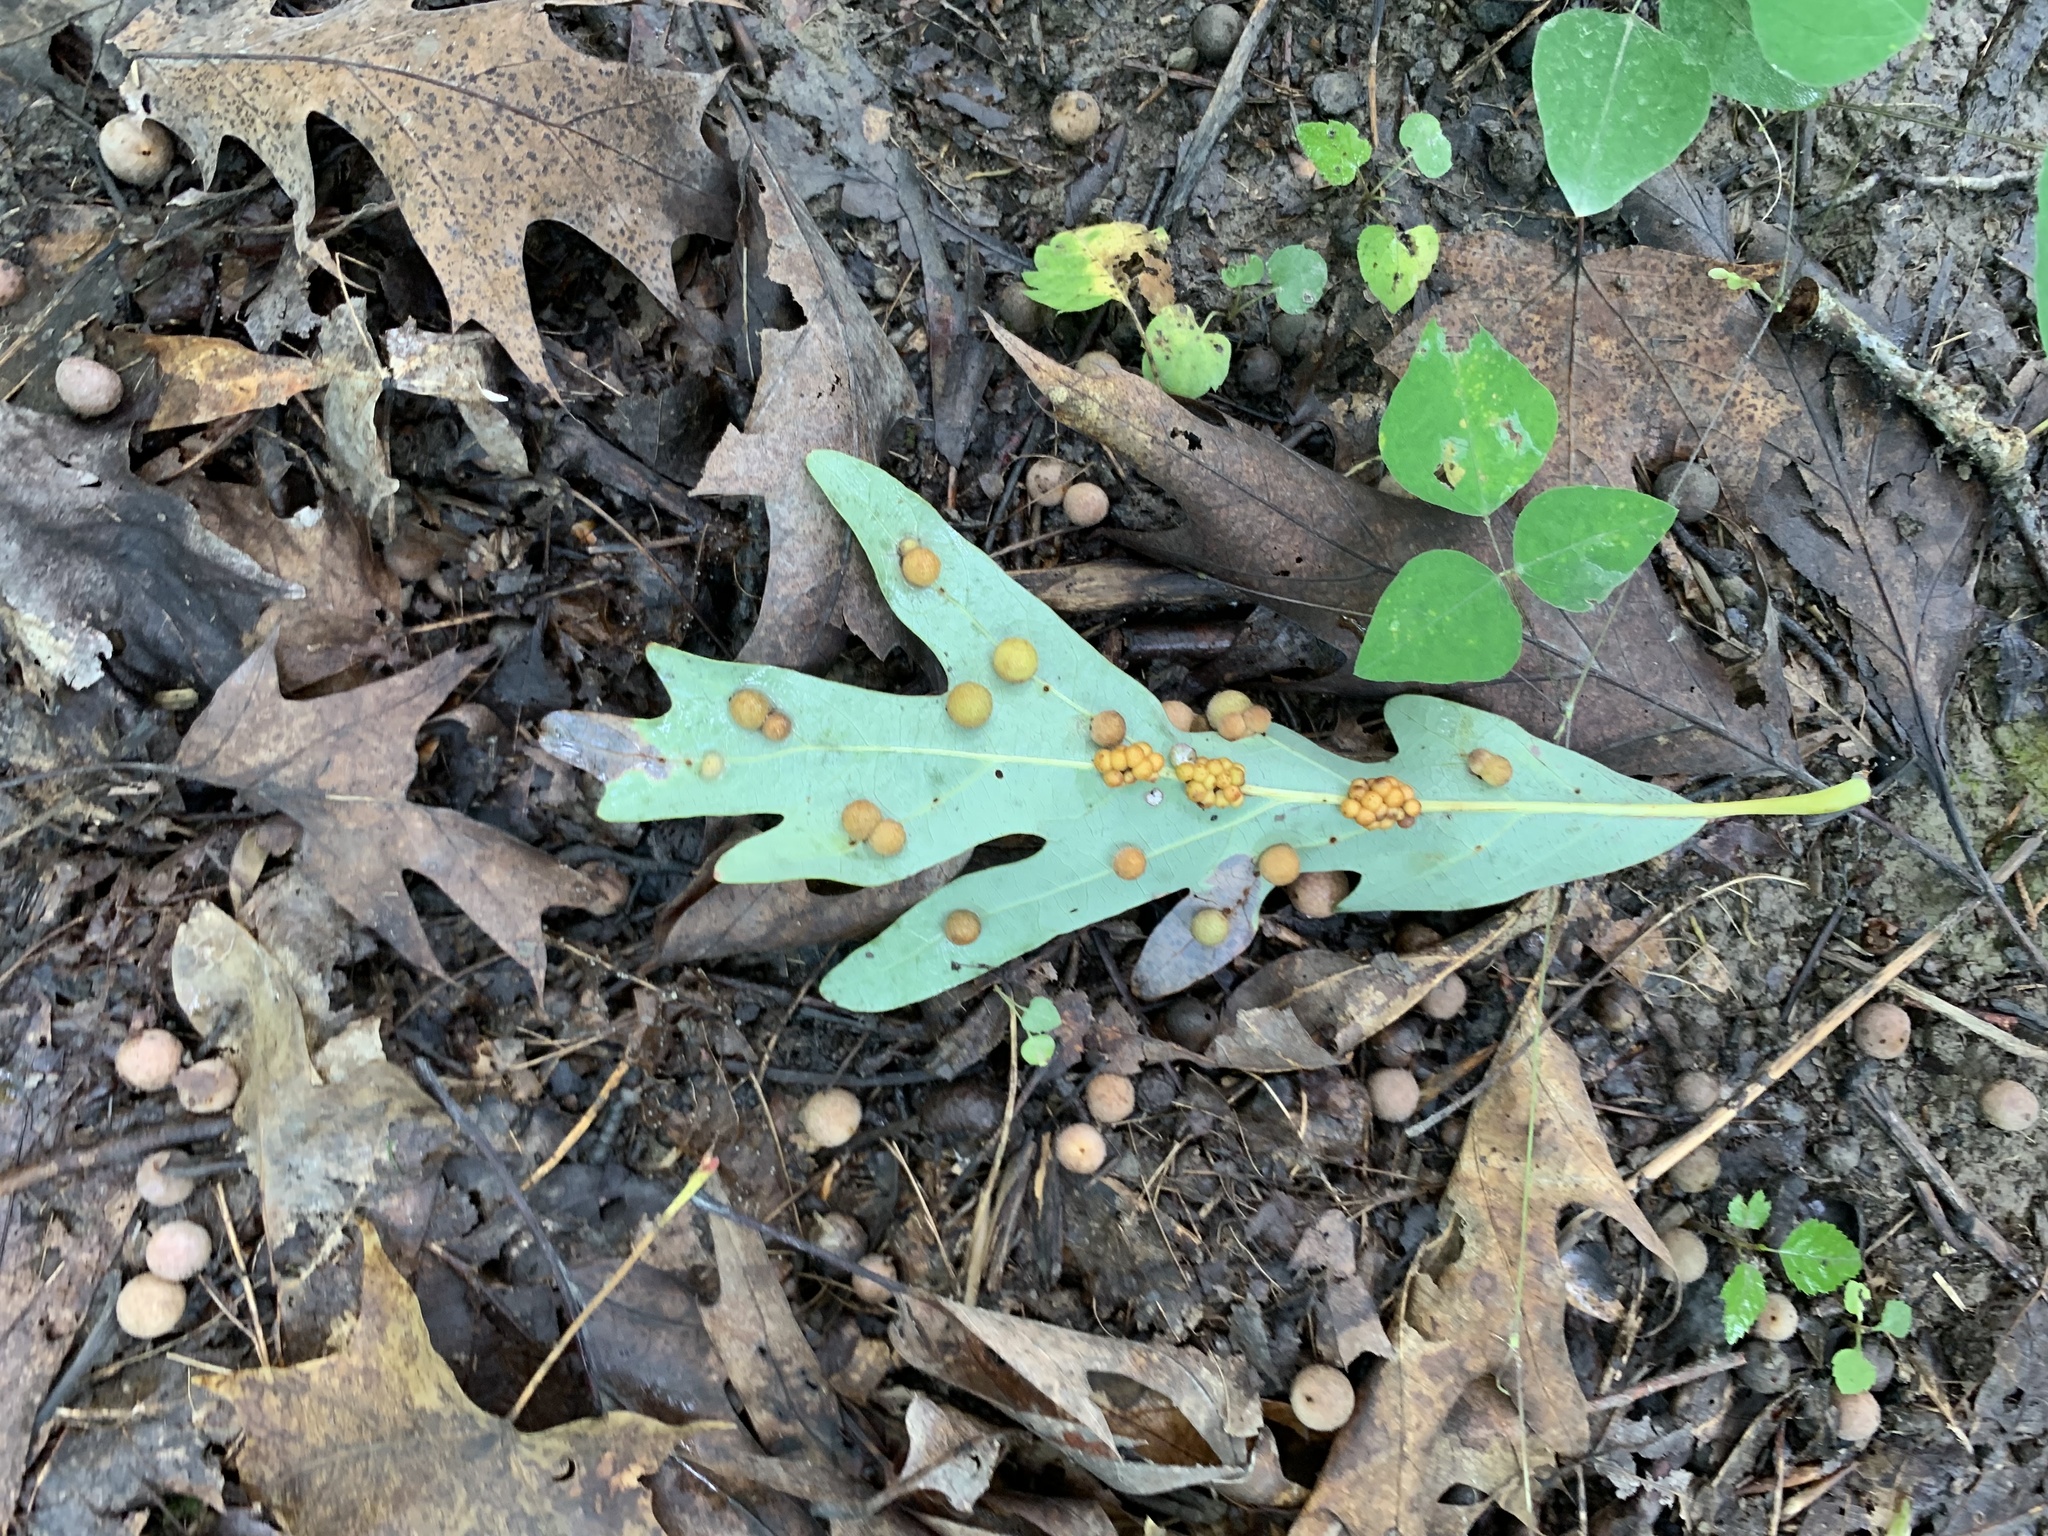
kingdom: Animalia
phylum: Arthropoda
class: Insecta
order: Hymenoptera
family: Cynipidae
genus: Andricus
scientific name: Andricus
